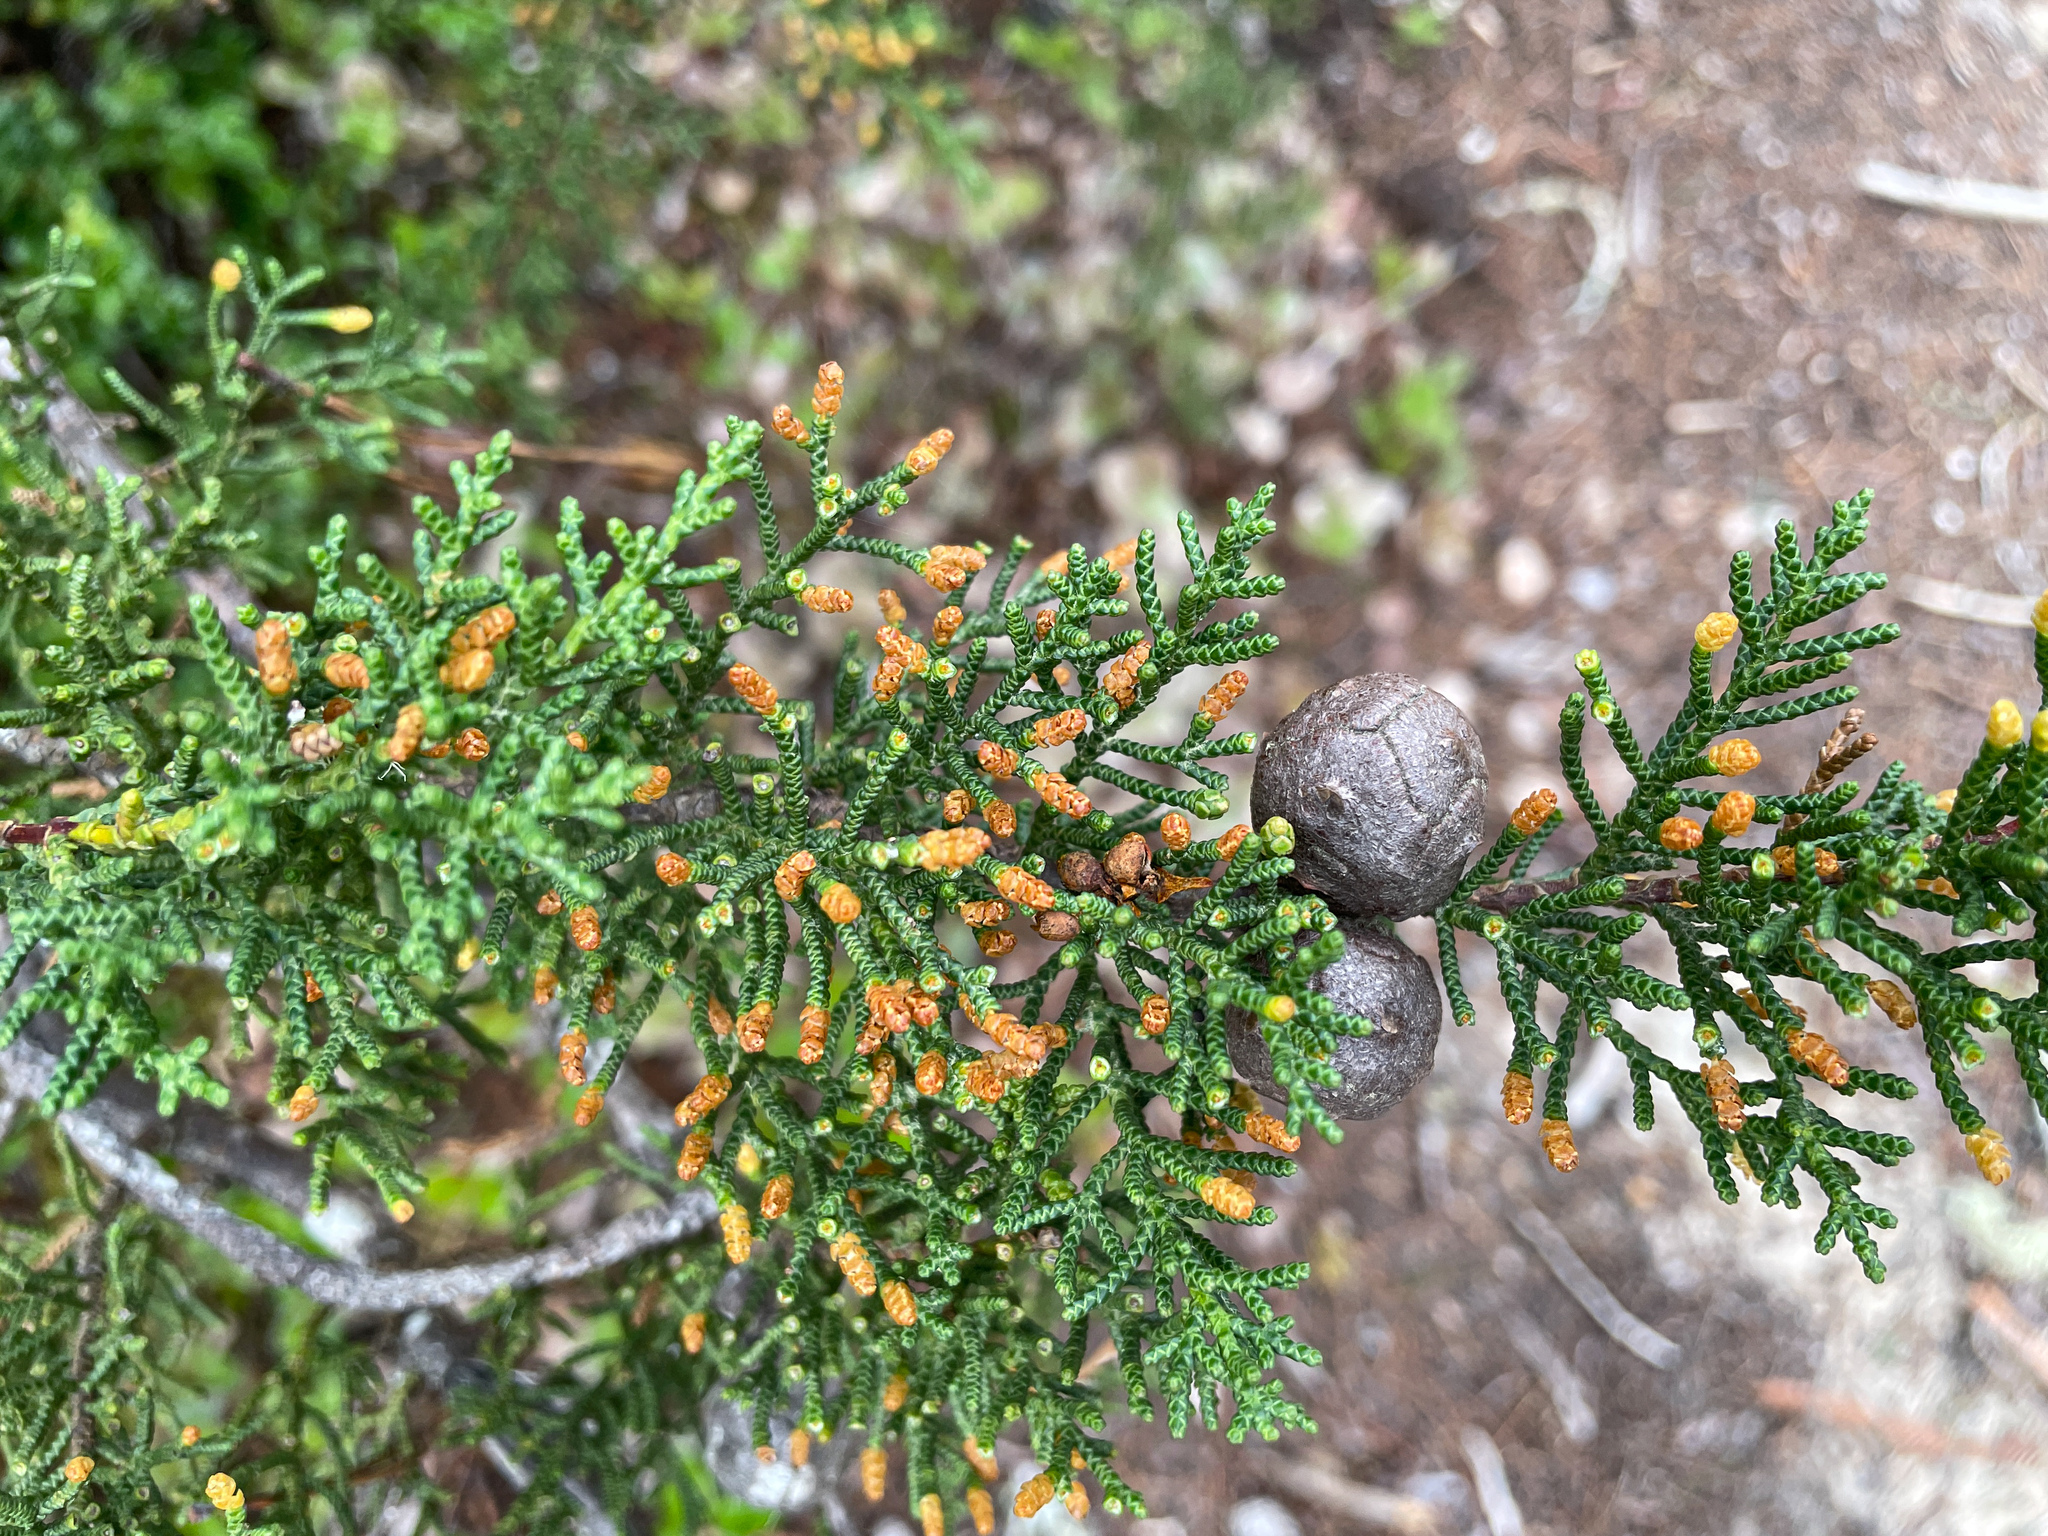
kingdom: Plantae
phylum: Tracheophyta
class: Pinopsida
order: Pinales
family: Cupressaceae
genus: Cupressus
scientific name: Cupressus goveniana
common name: Gowen cypress
